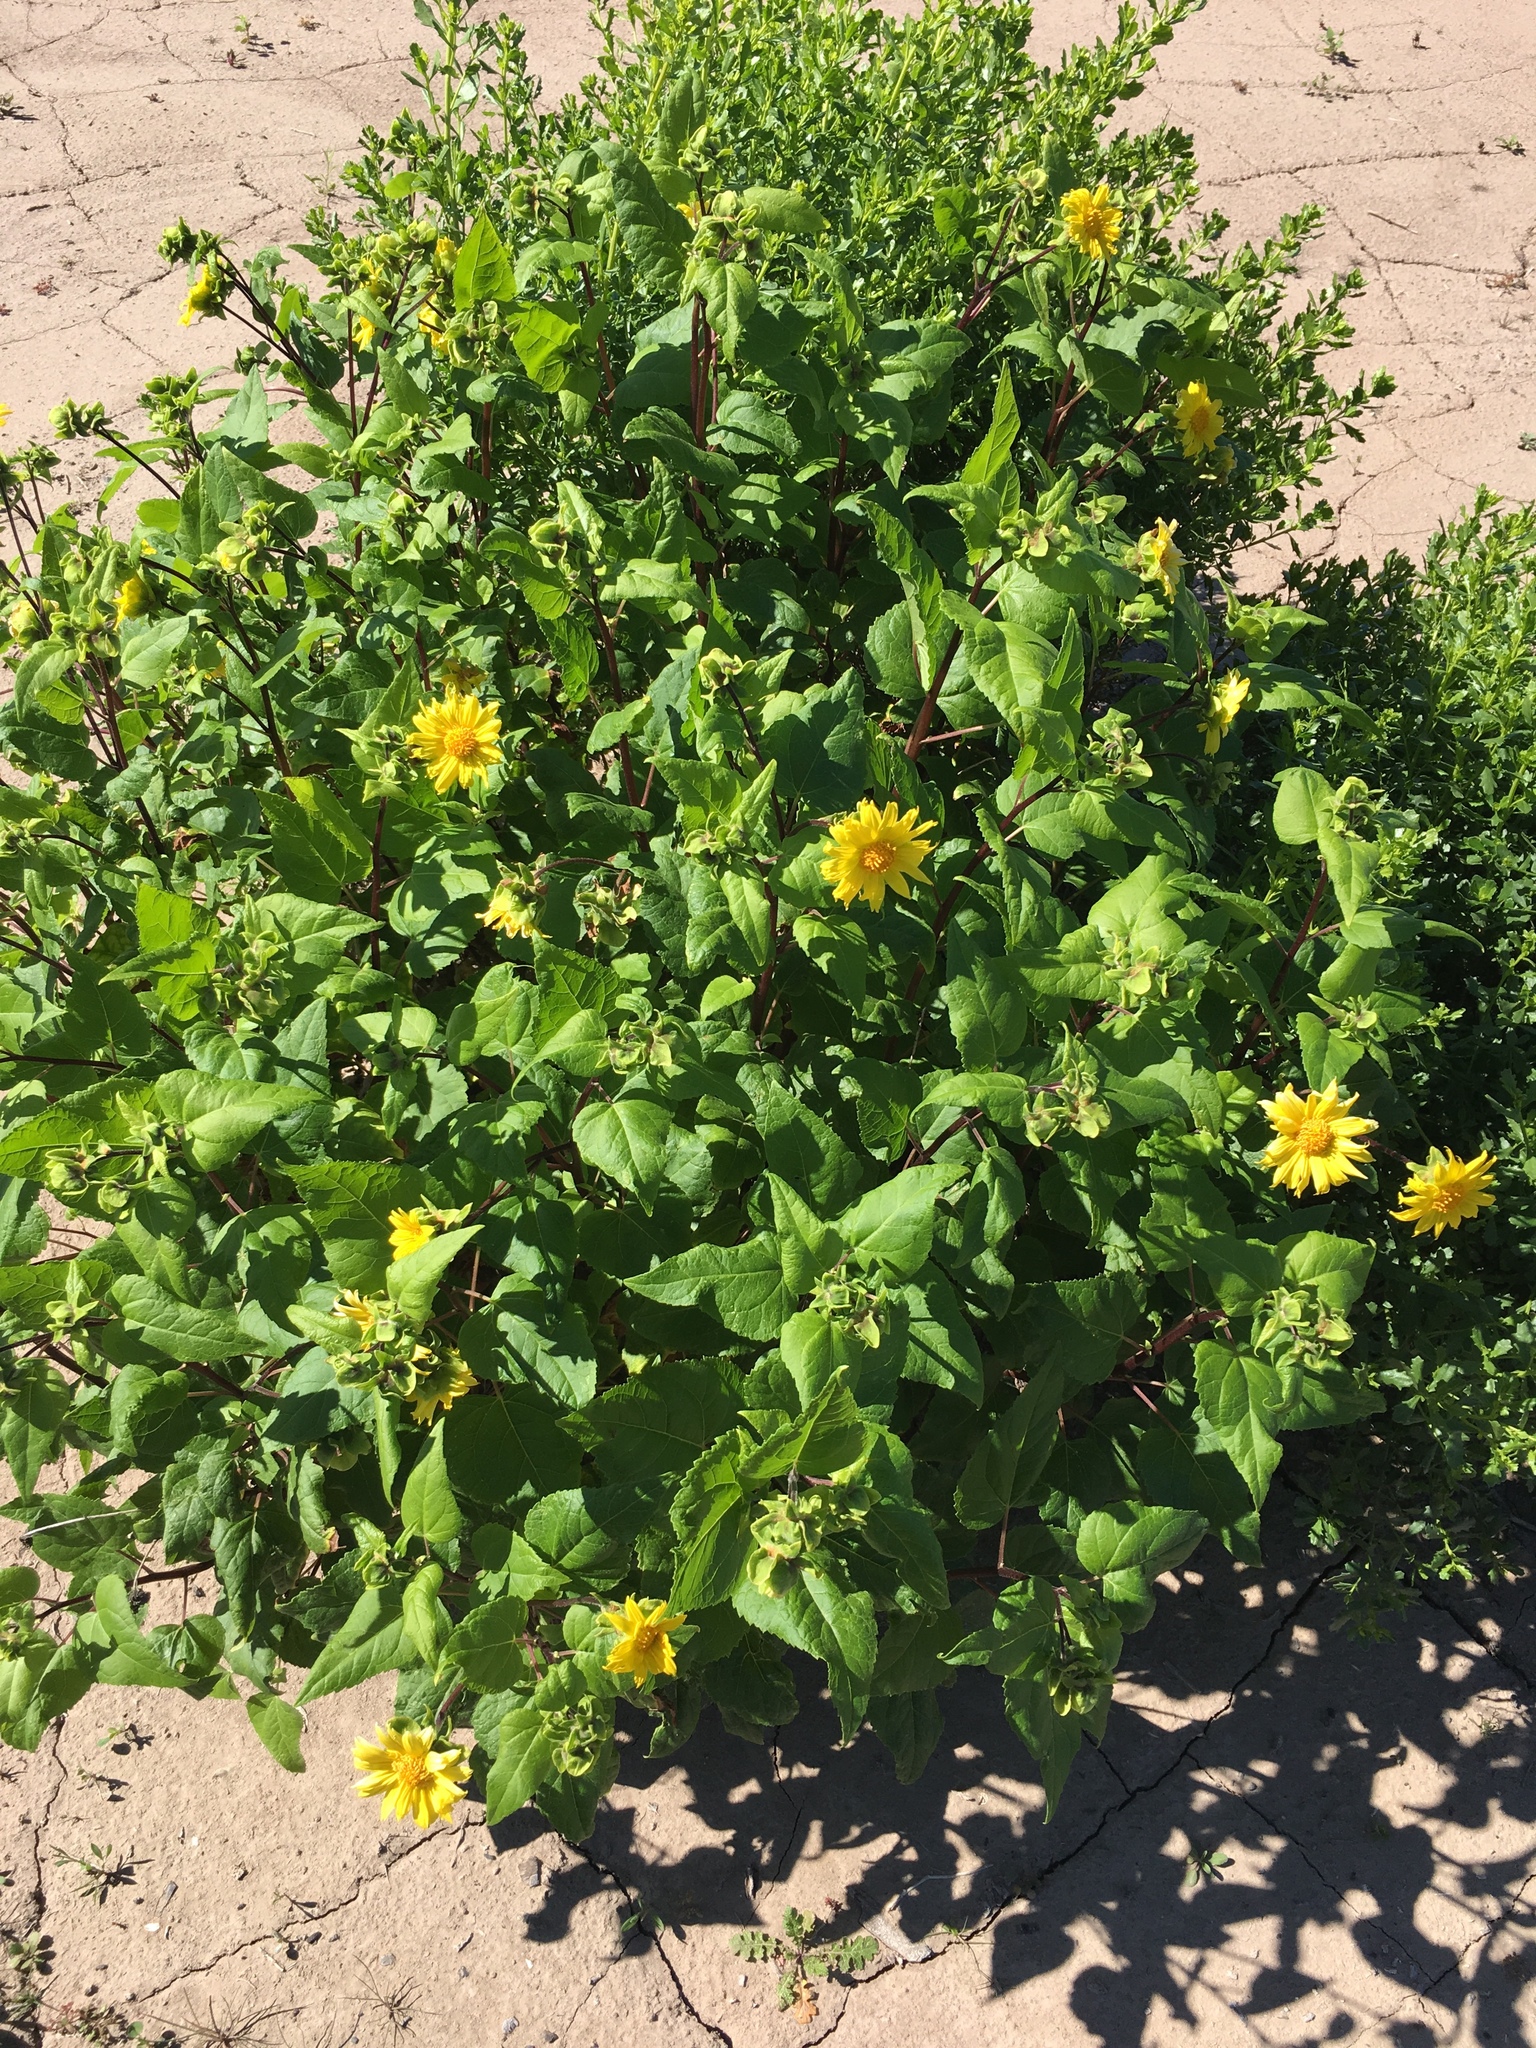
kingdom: Plantae
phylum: Tracheophyta
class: Magnoliopsida
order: Asterales
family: Asteraceae
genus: Venegasia
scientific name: Venegasia carpesioides
